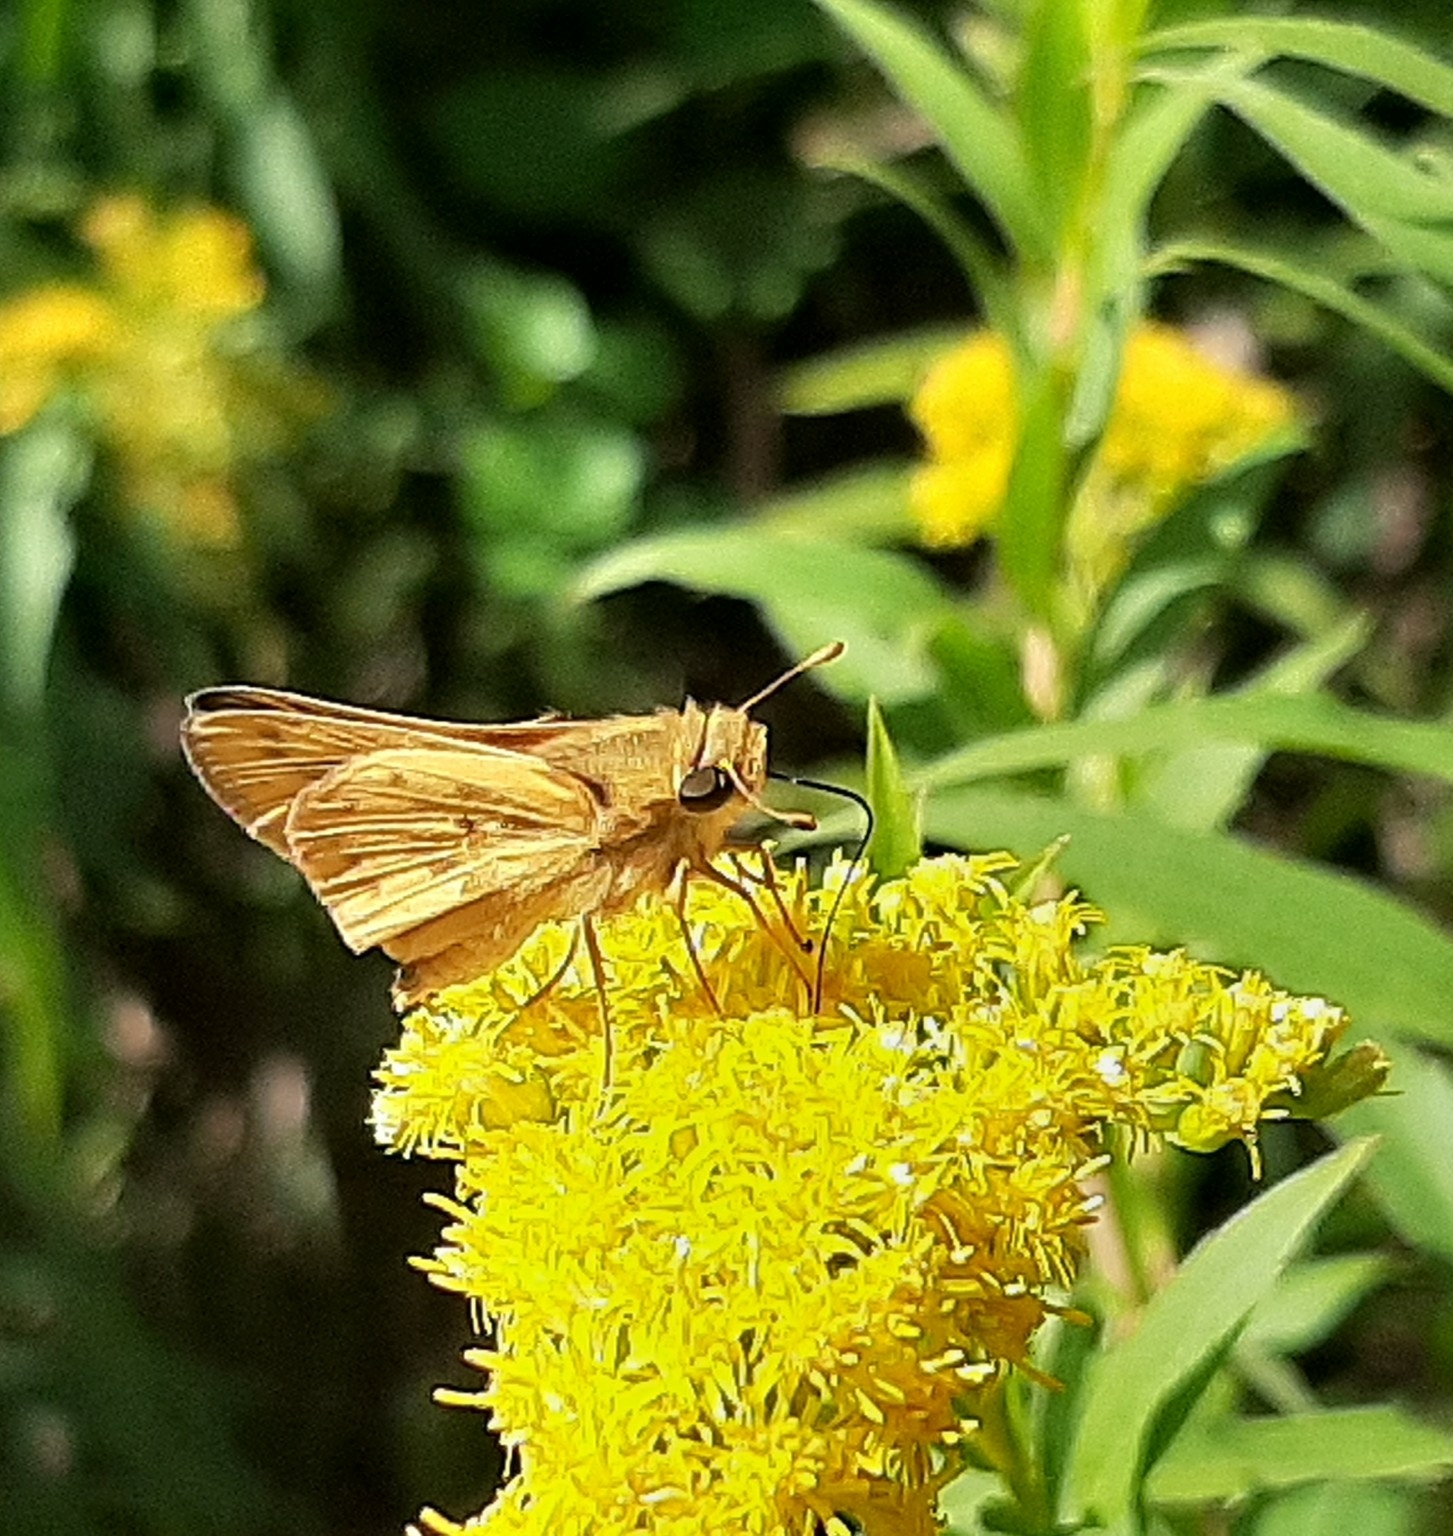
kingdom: Animalia
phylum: Arthropoda
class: Insecta
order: Lepidoptera
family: Hesperiidae
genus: Hylephila
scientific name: Hylephila phyleus
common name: Fiery skipper
